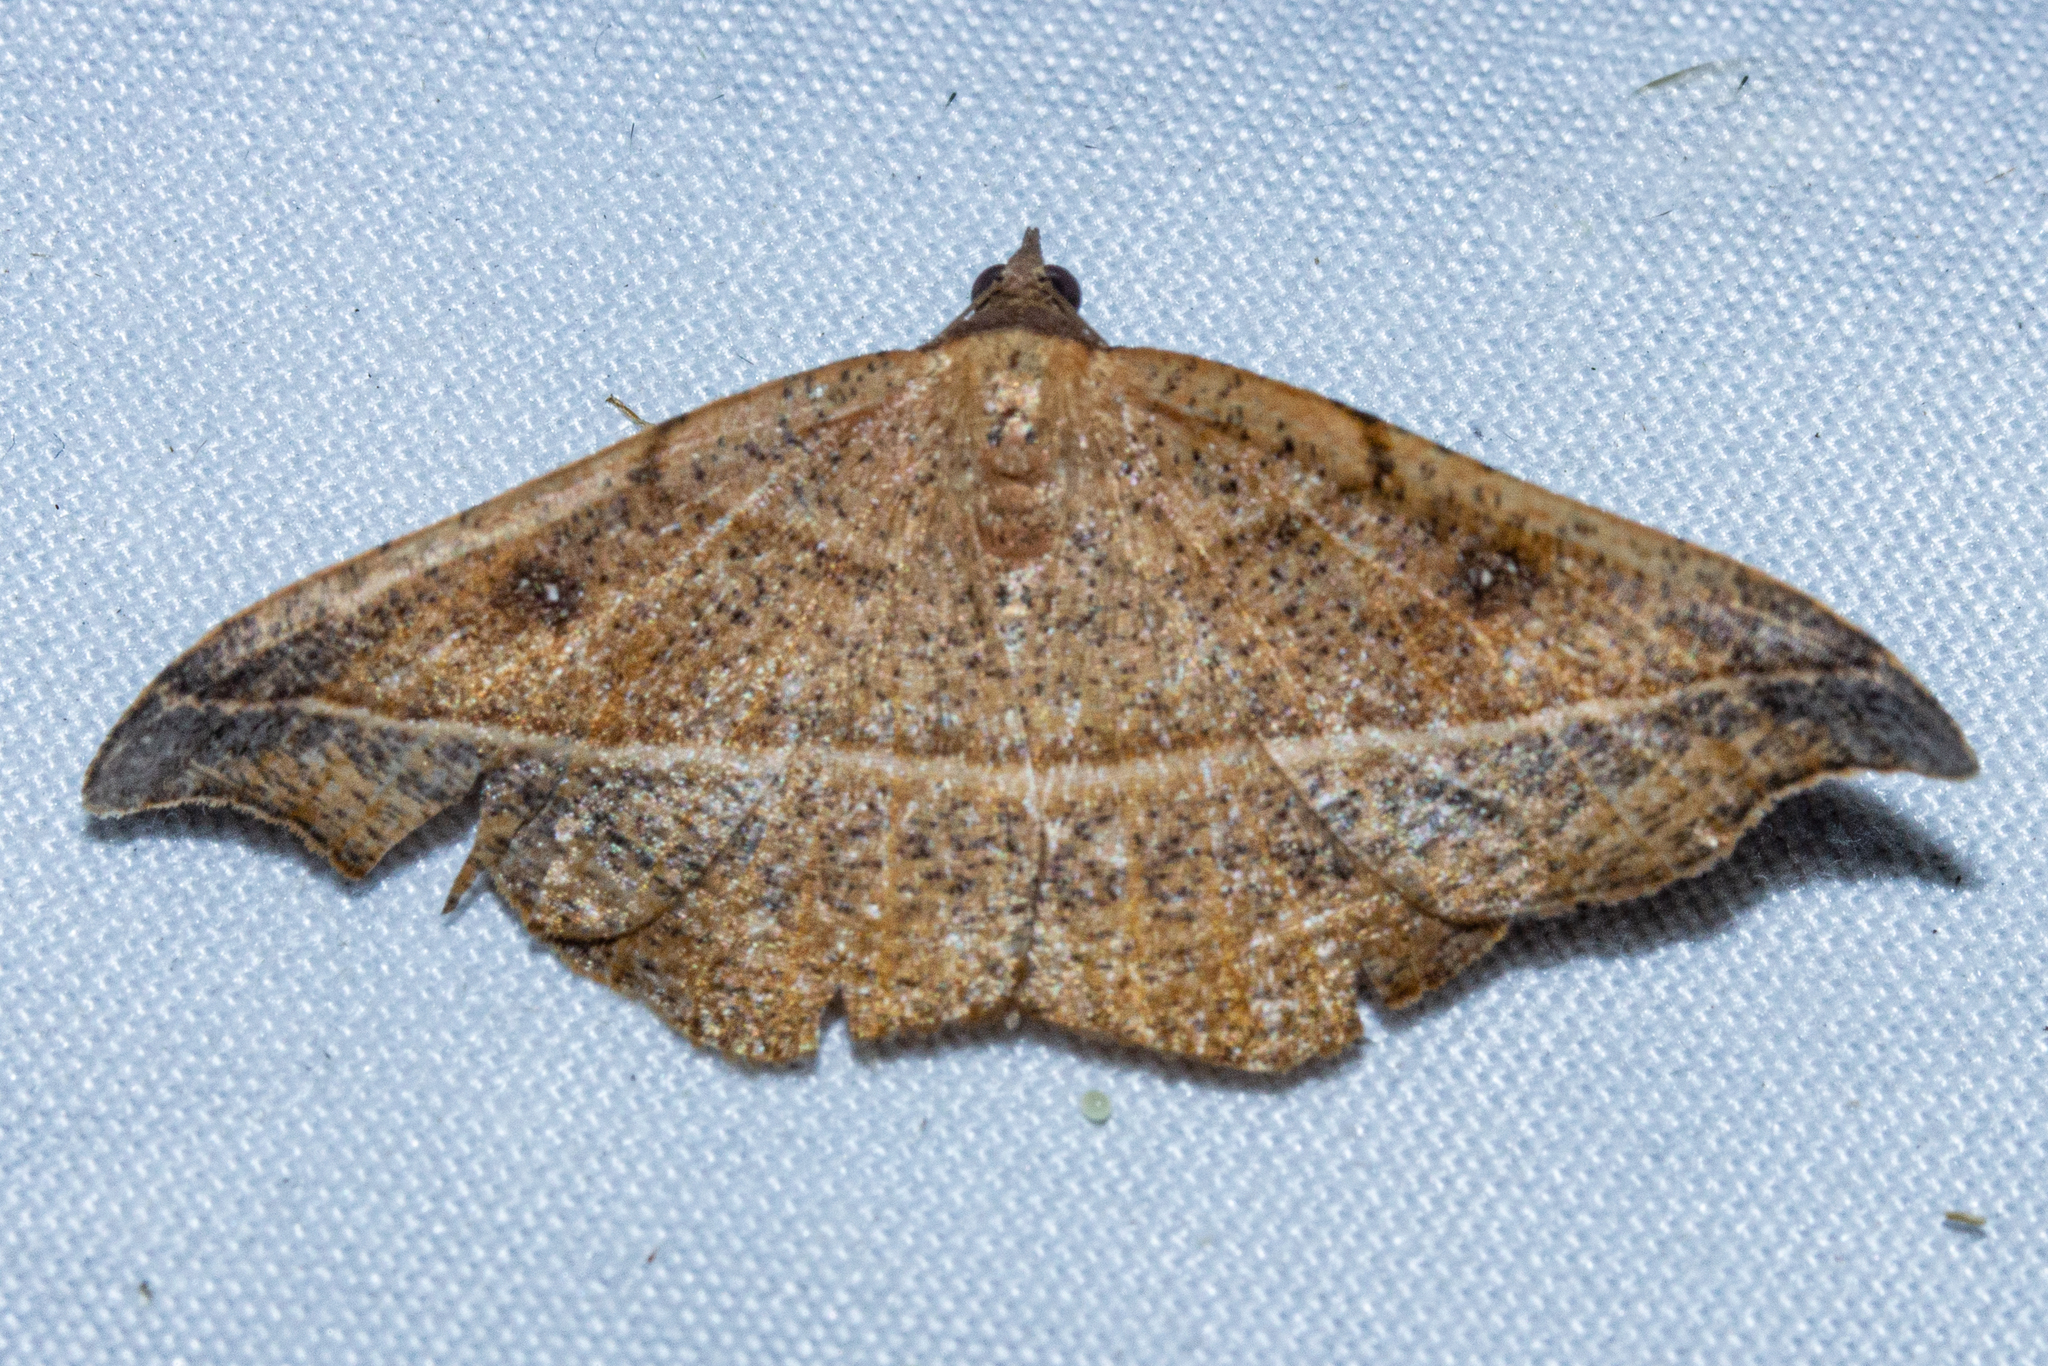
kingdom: Animalia
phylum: Arthropoda
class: Insecta
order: Lepidoptera
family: Geometridae
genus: Sarisa
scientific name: Sarisa muriferata
